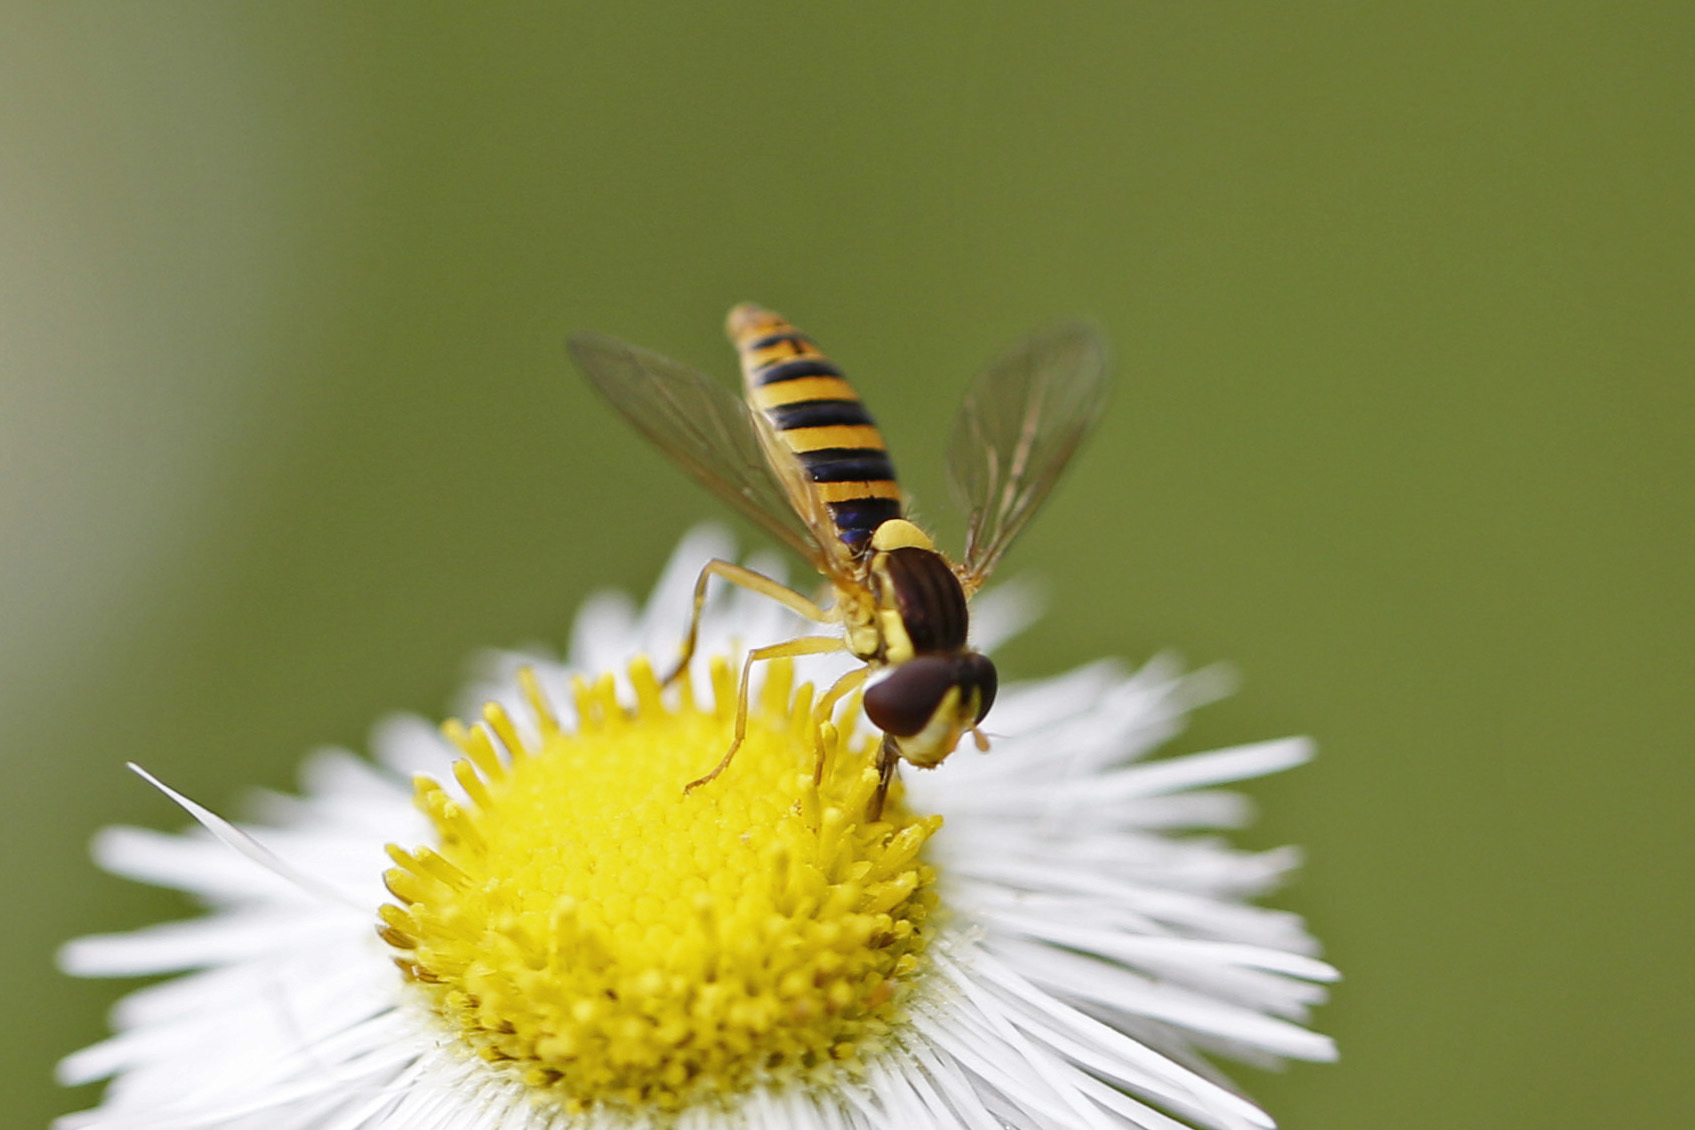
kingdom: Animalia
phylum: Arthropoda
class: Insecta
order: Diptera
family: Syrphidae
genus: Sphaerophoria
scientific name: Sphaerophoria
